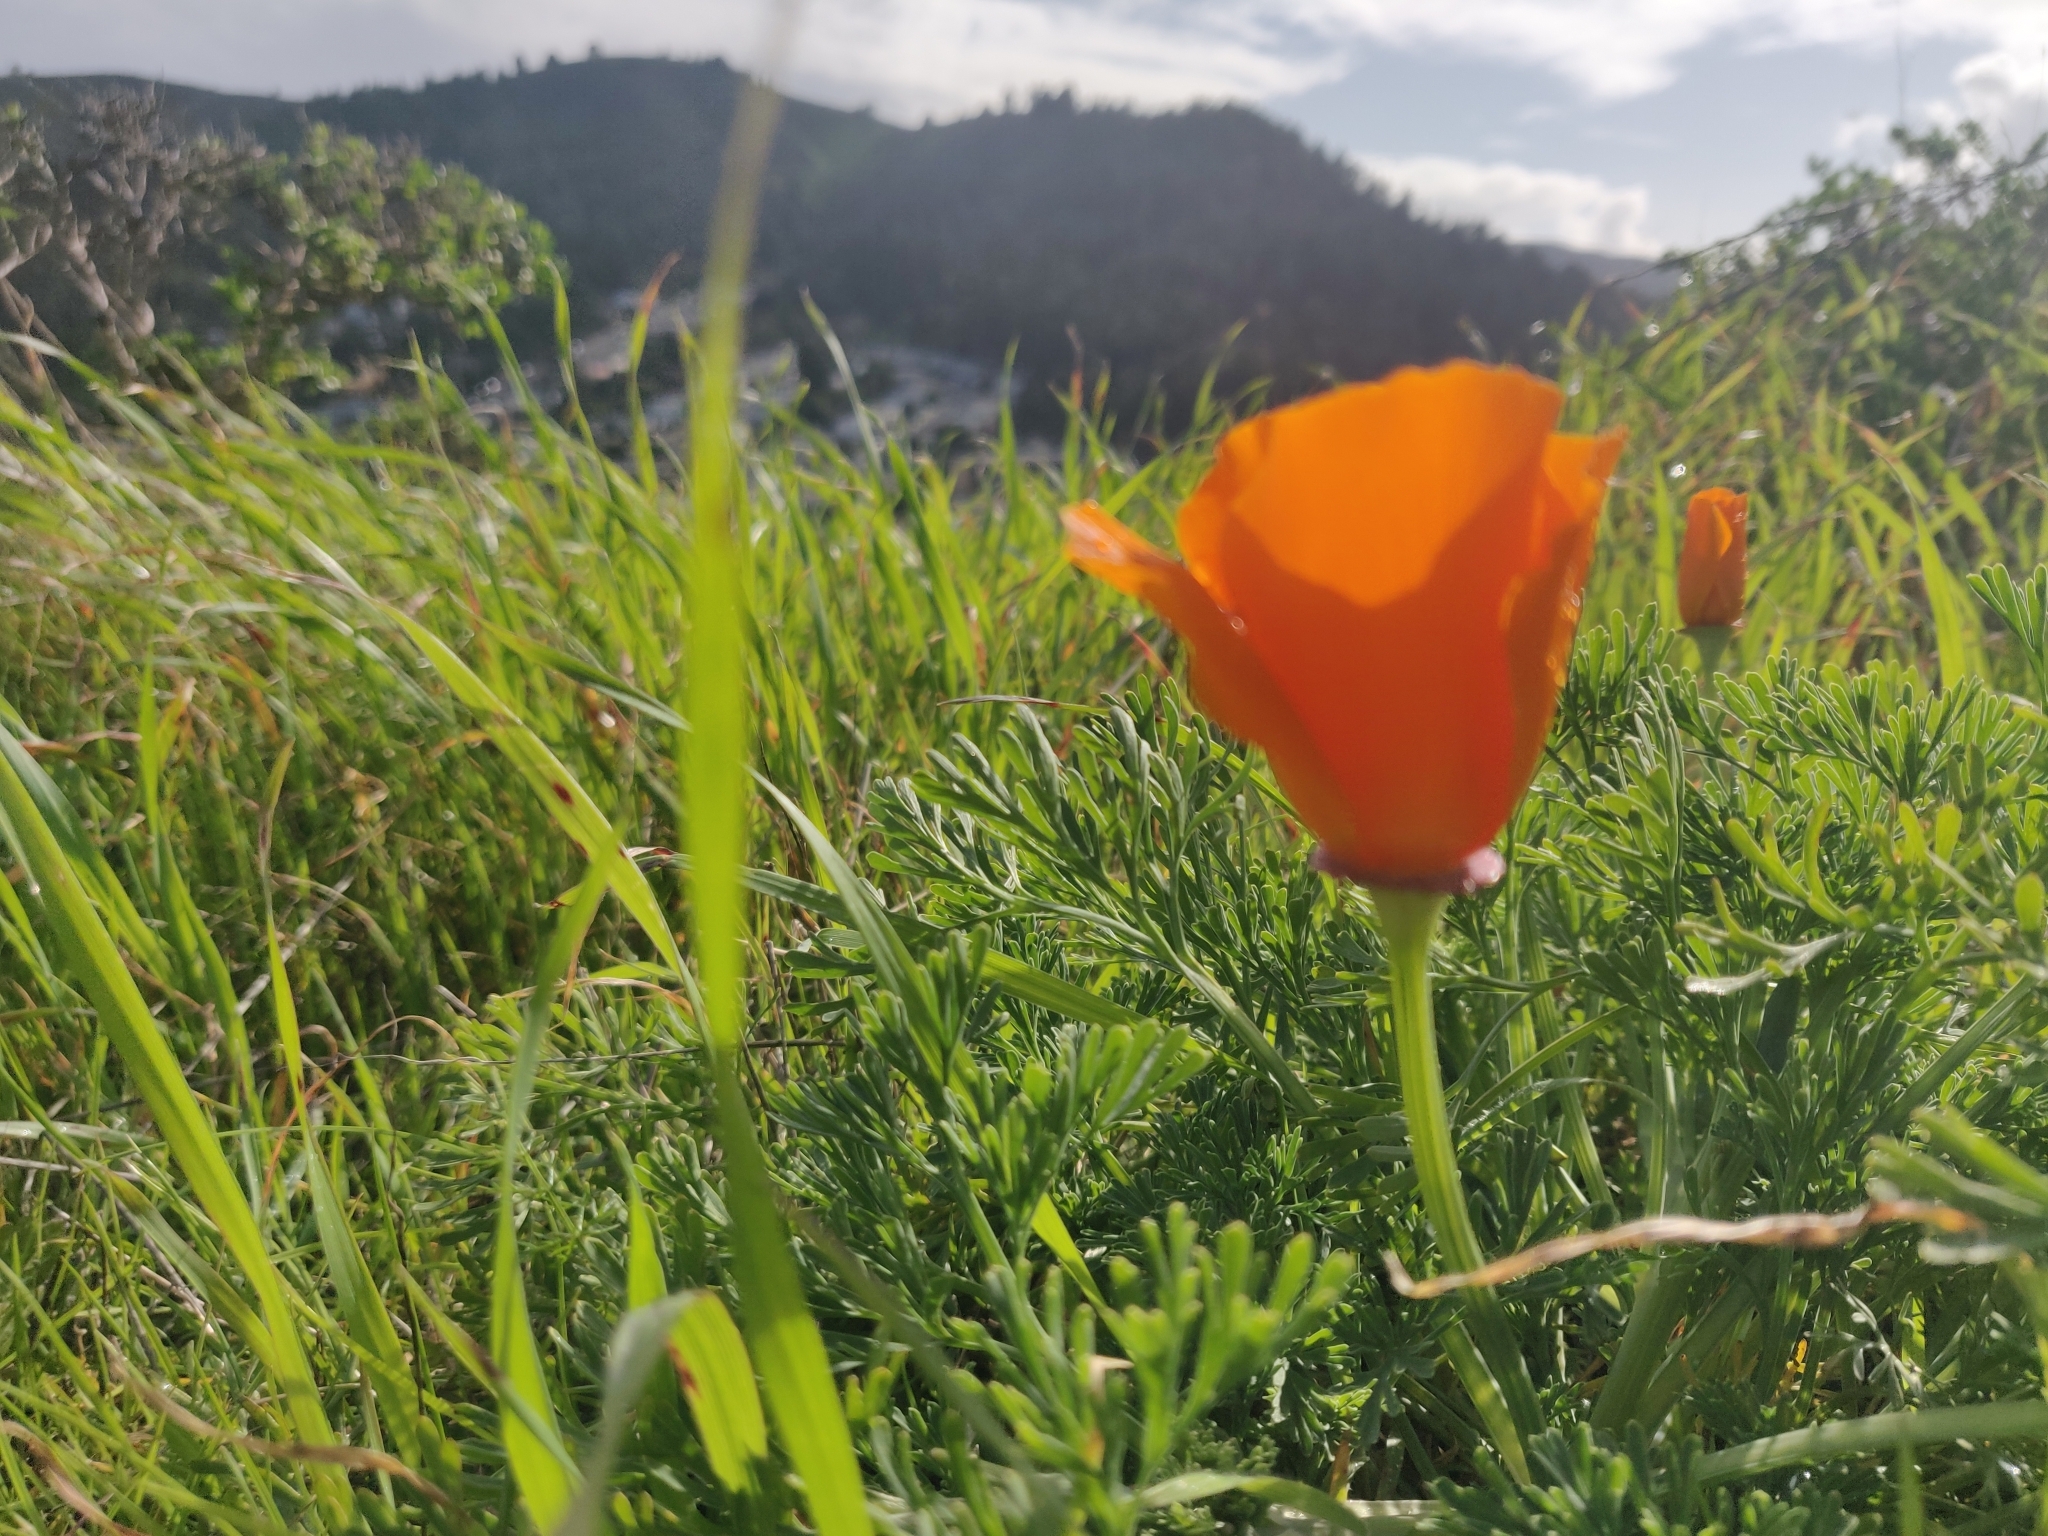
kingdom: Plantae
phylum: Tracheophyta
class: Magnoliopsida
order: Ranunculales
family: Papaveraceae
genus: Eschscholzia
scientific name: Eschscholzia californica
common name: California poppy
